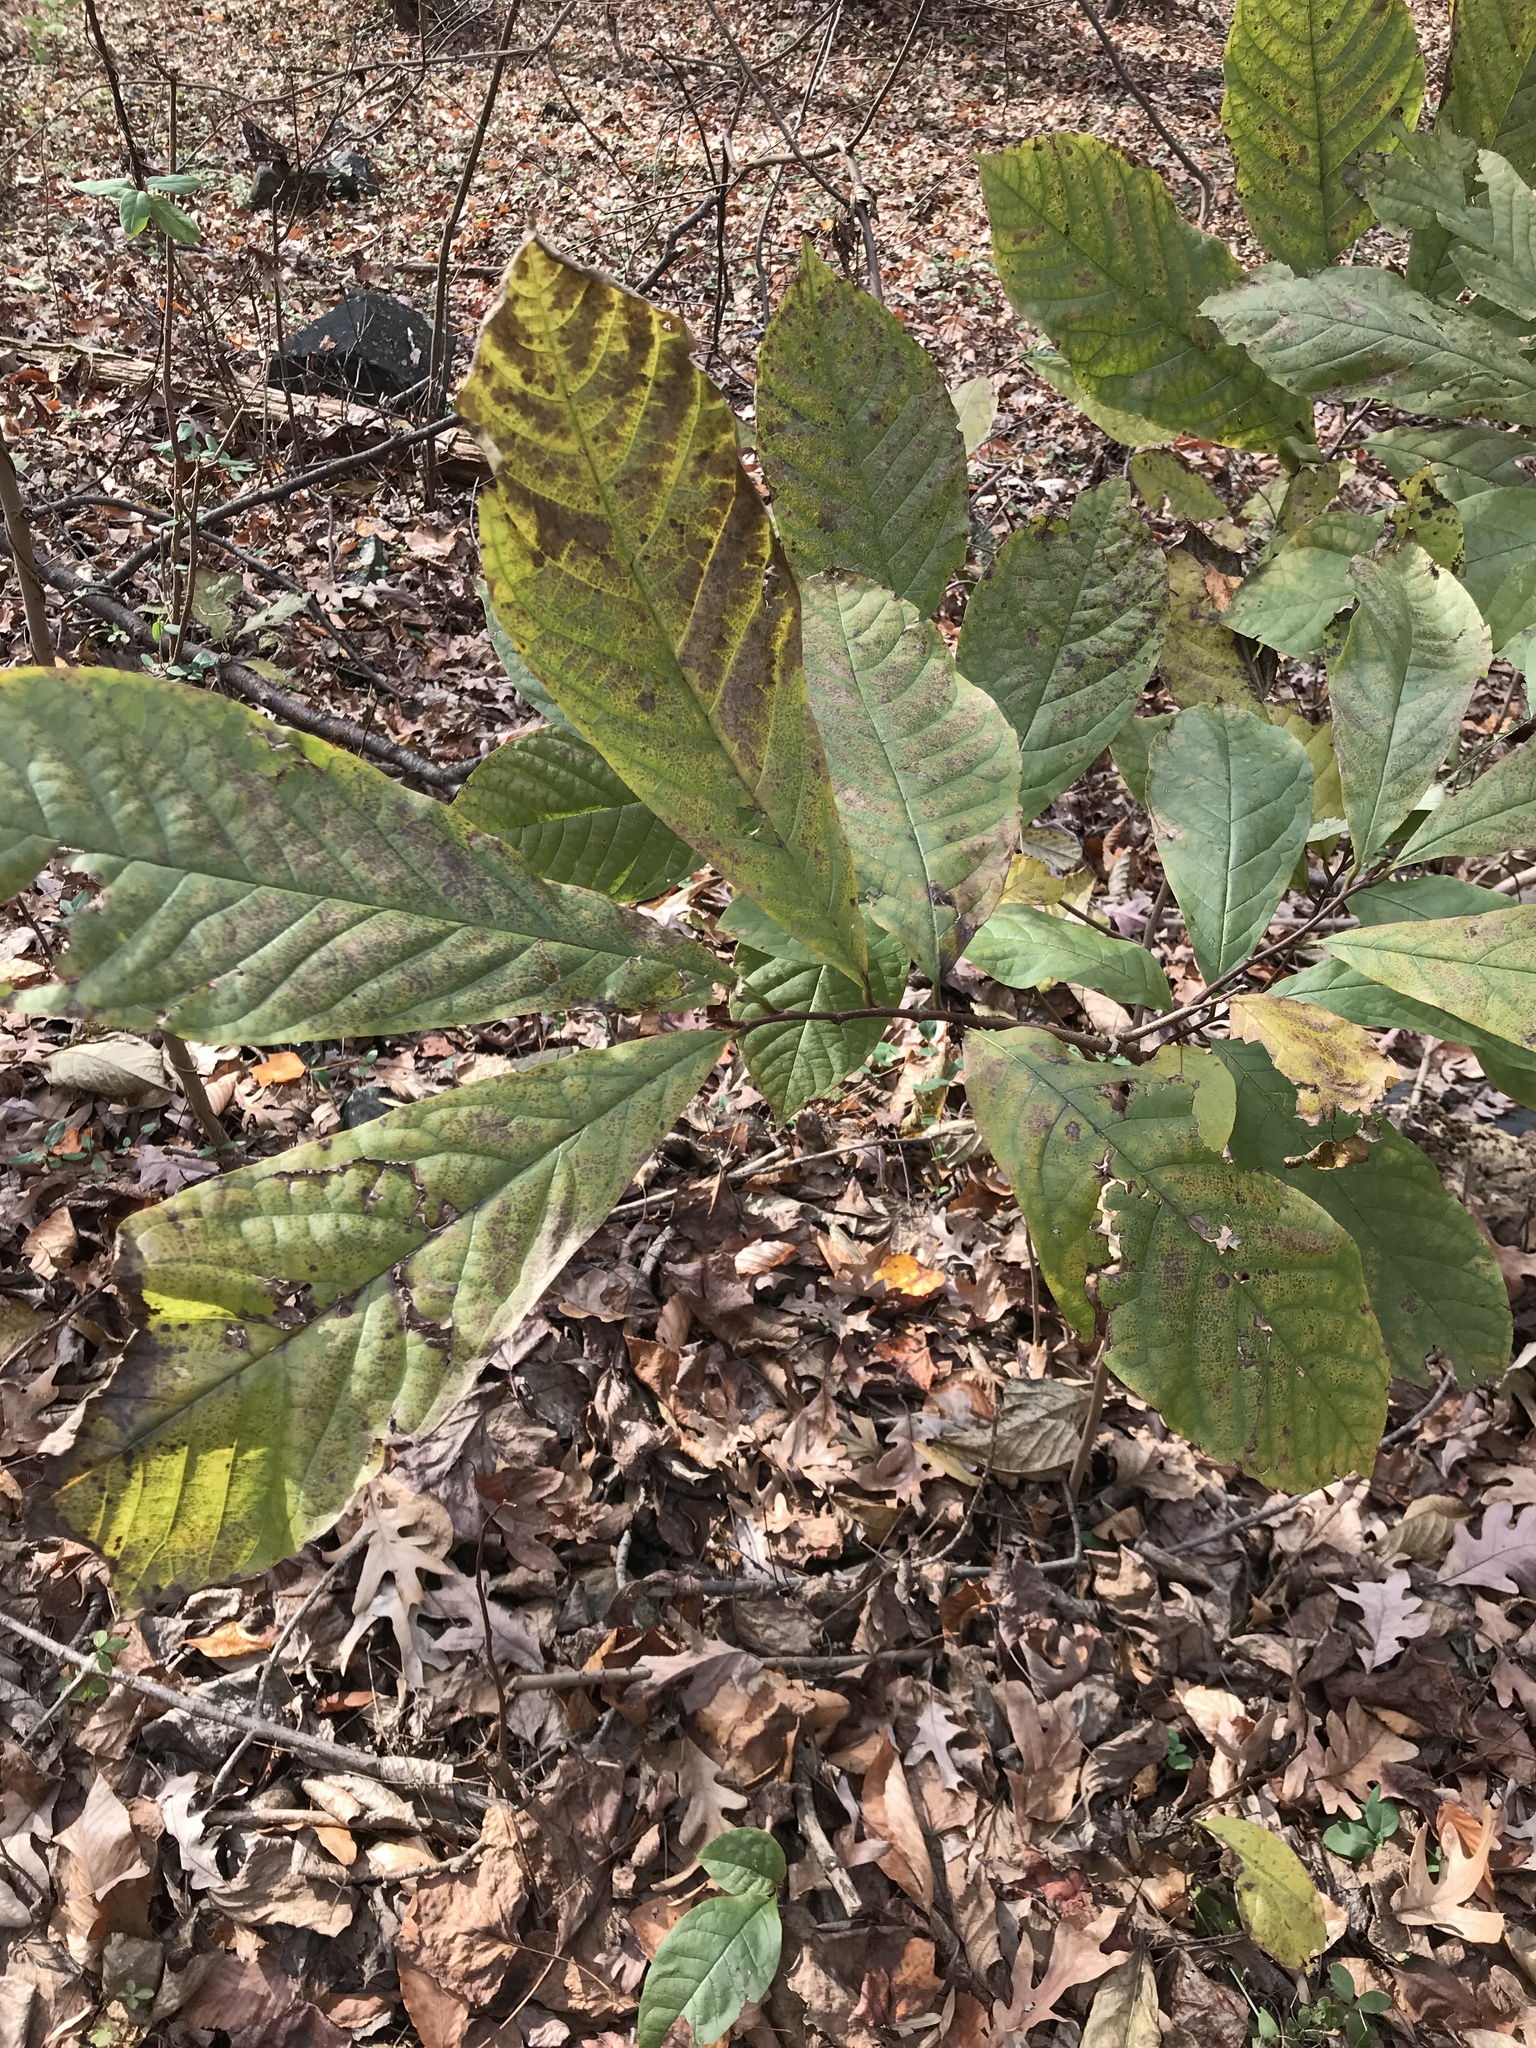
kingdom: Plantae
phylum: Tracheophyta
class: Magnoliopsida
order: Magnoliales
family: Annonaceae
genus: Asimina
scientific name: Asimina triloba
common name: Dog-banana
